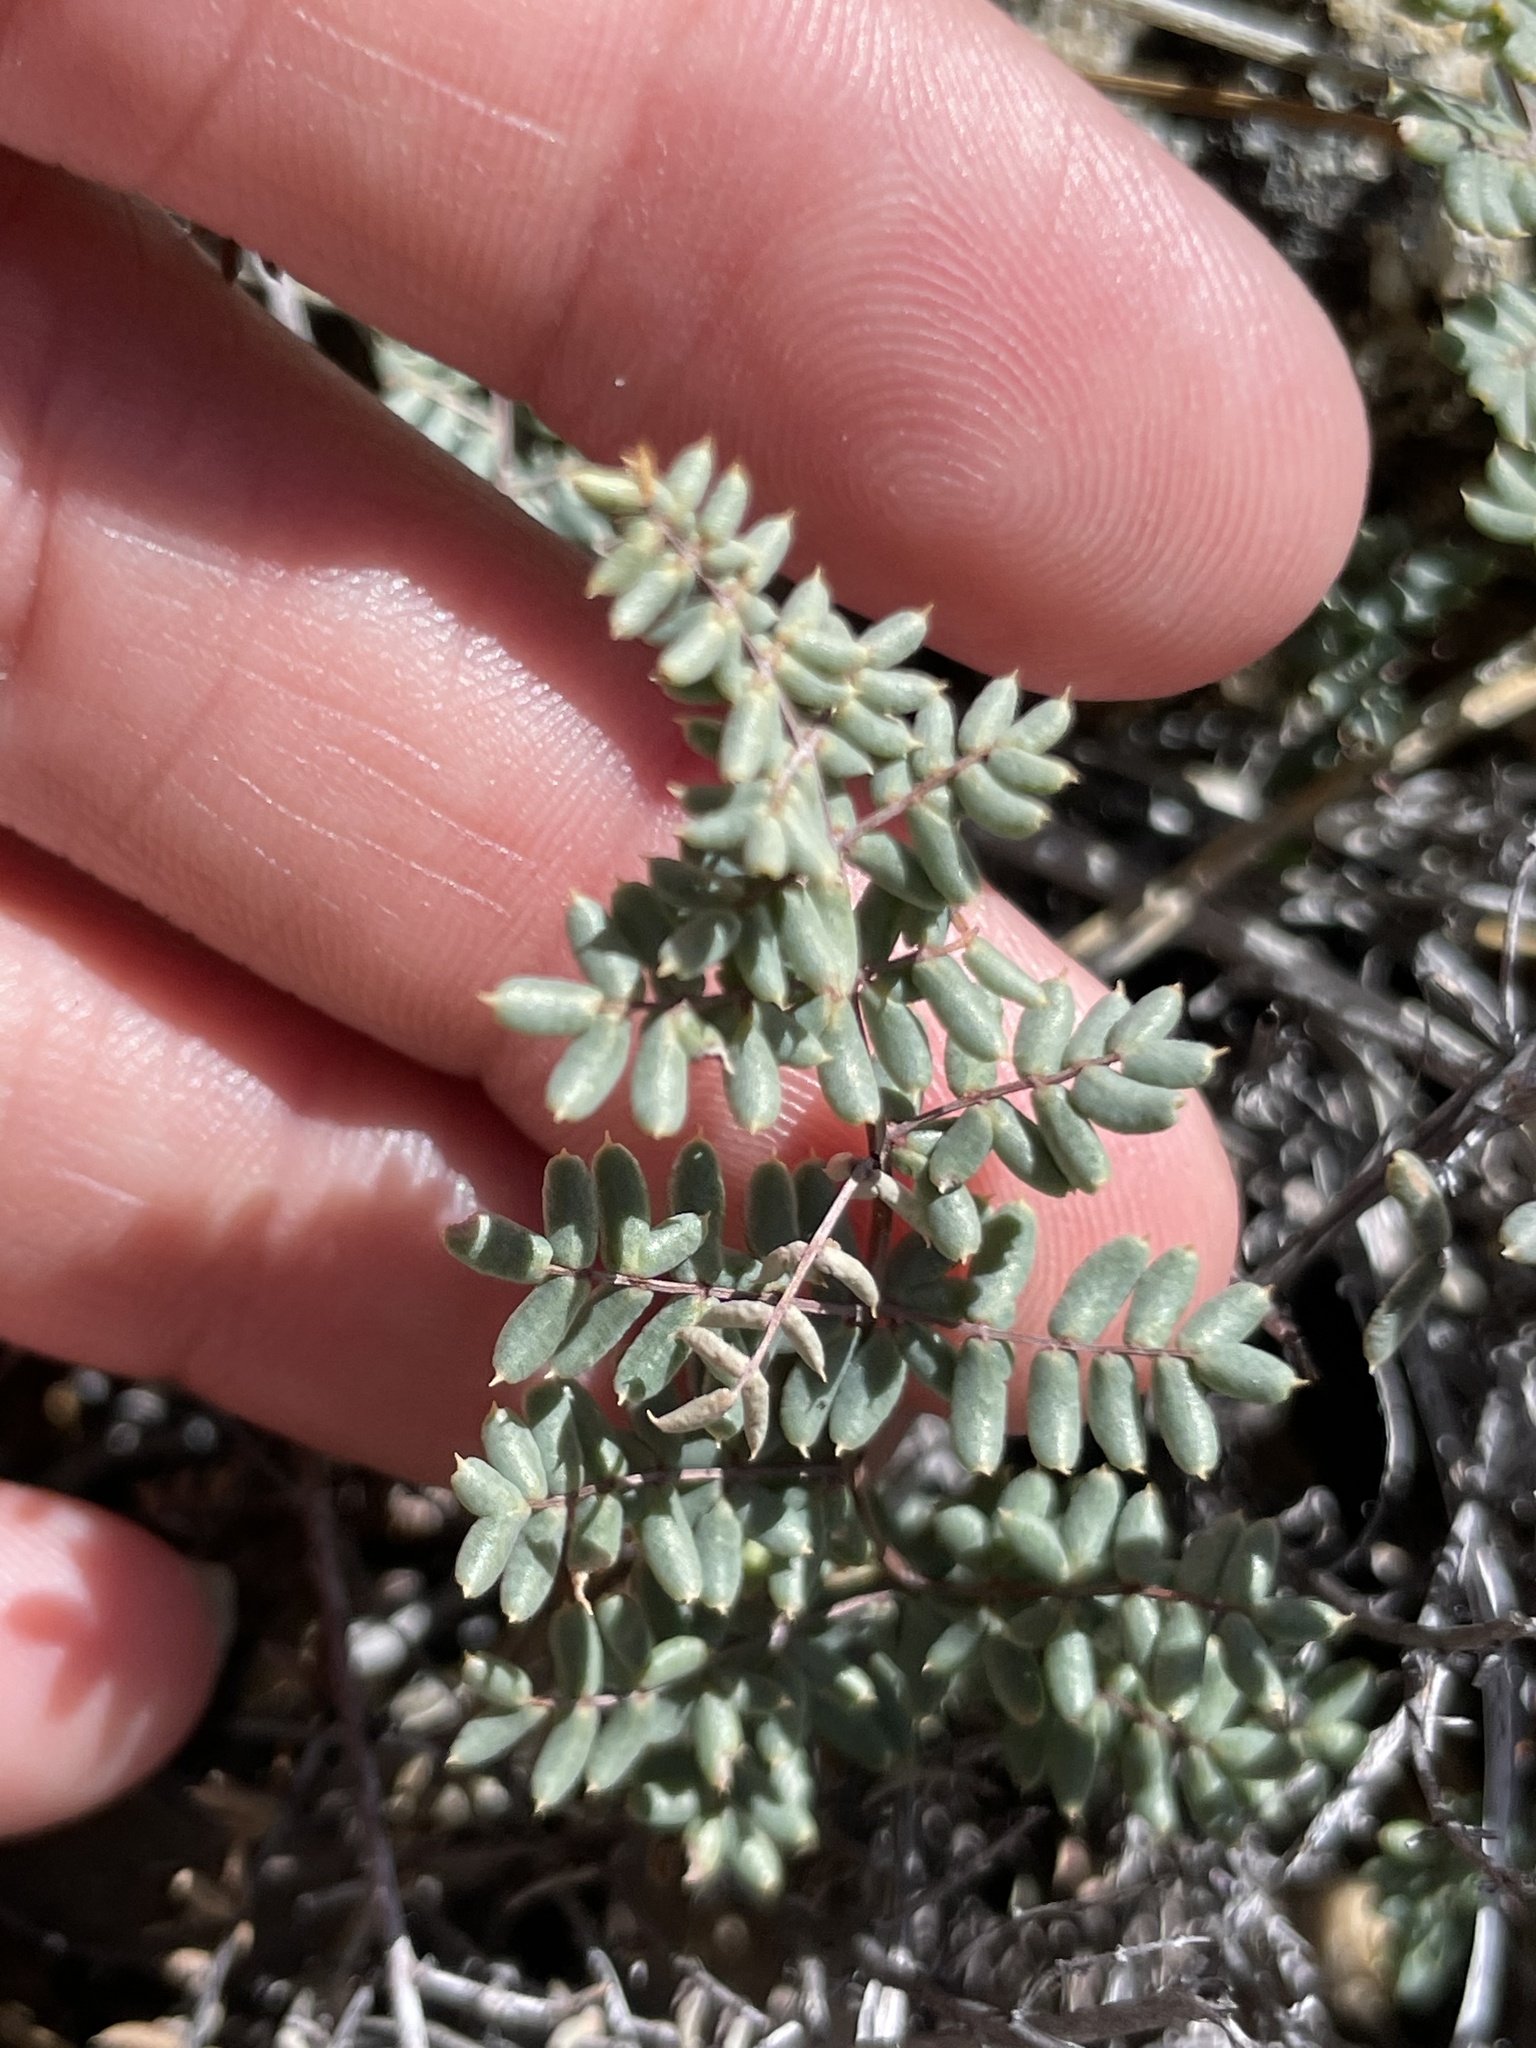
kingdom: Plantae
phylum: Tracheophyta
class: Polypodiopsida
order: Polypodiales
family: Pteridaceae
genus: Pellaea
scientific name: Pellaea mucronata
